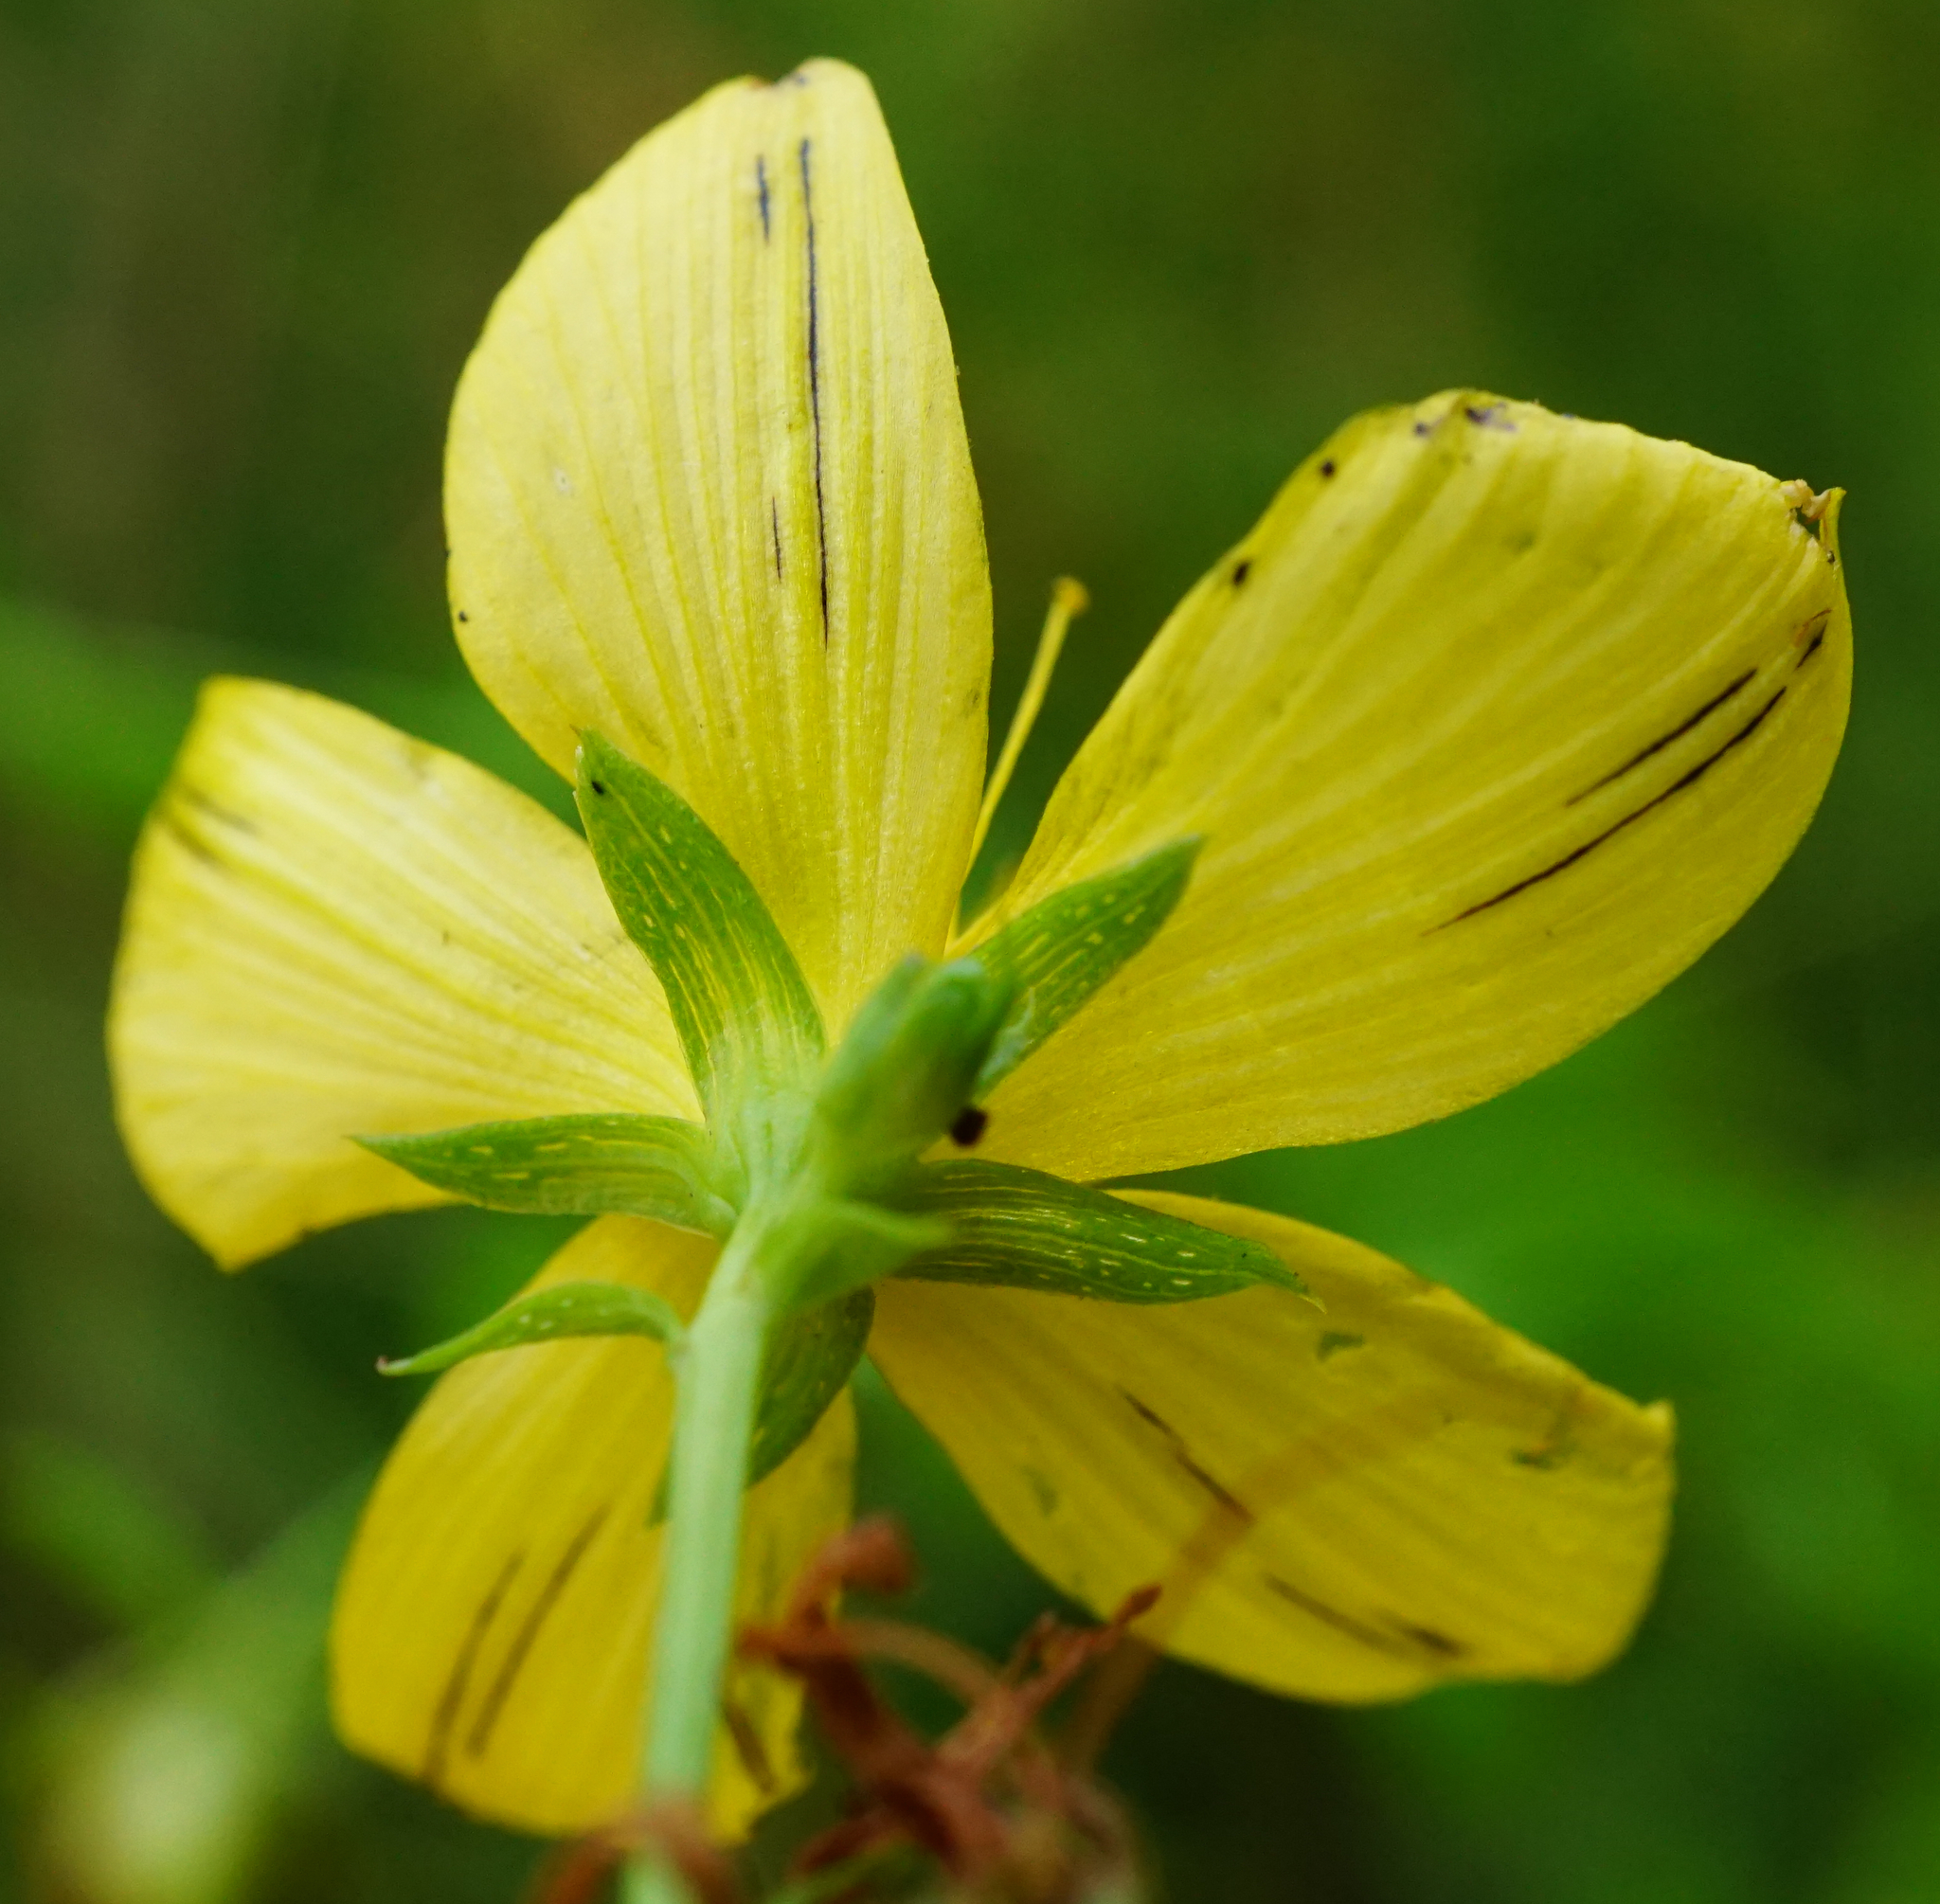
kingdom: Plantae
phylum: Tracheophyta
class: Magnoliopsida
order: Malpighiales
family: Hypericaceae
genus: Hypericum
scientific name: Hypericum desetangsii
